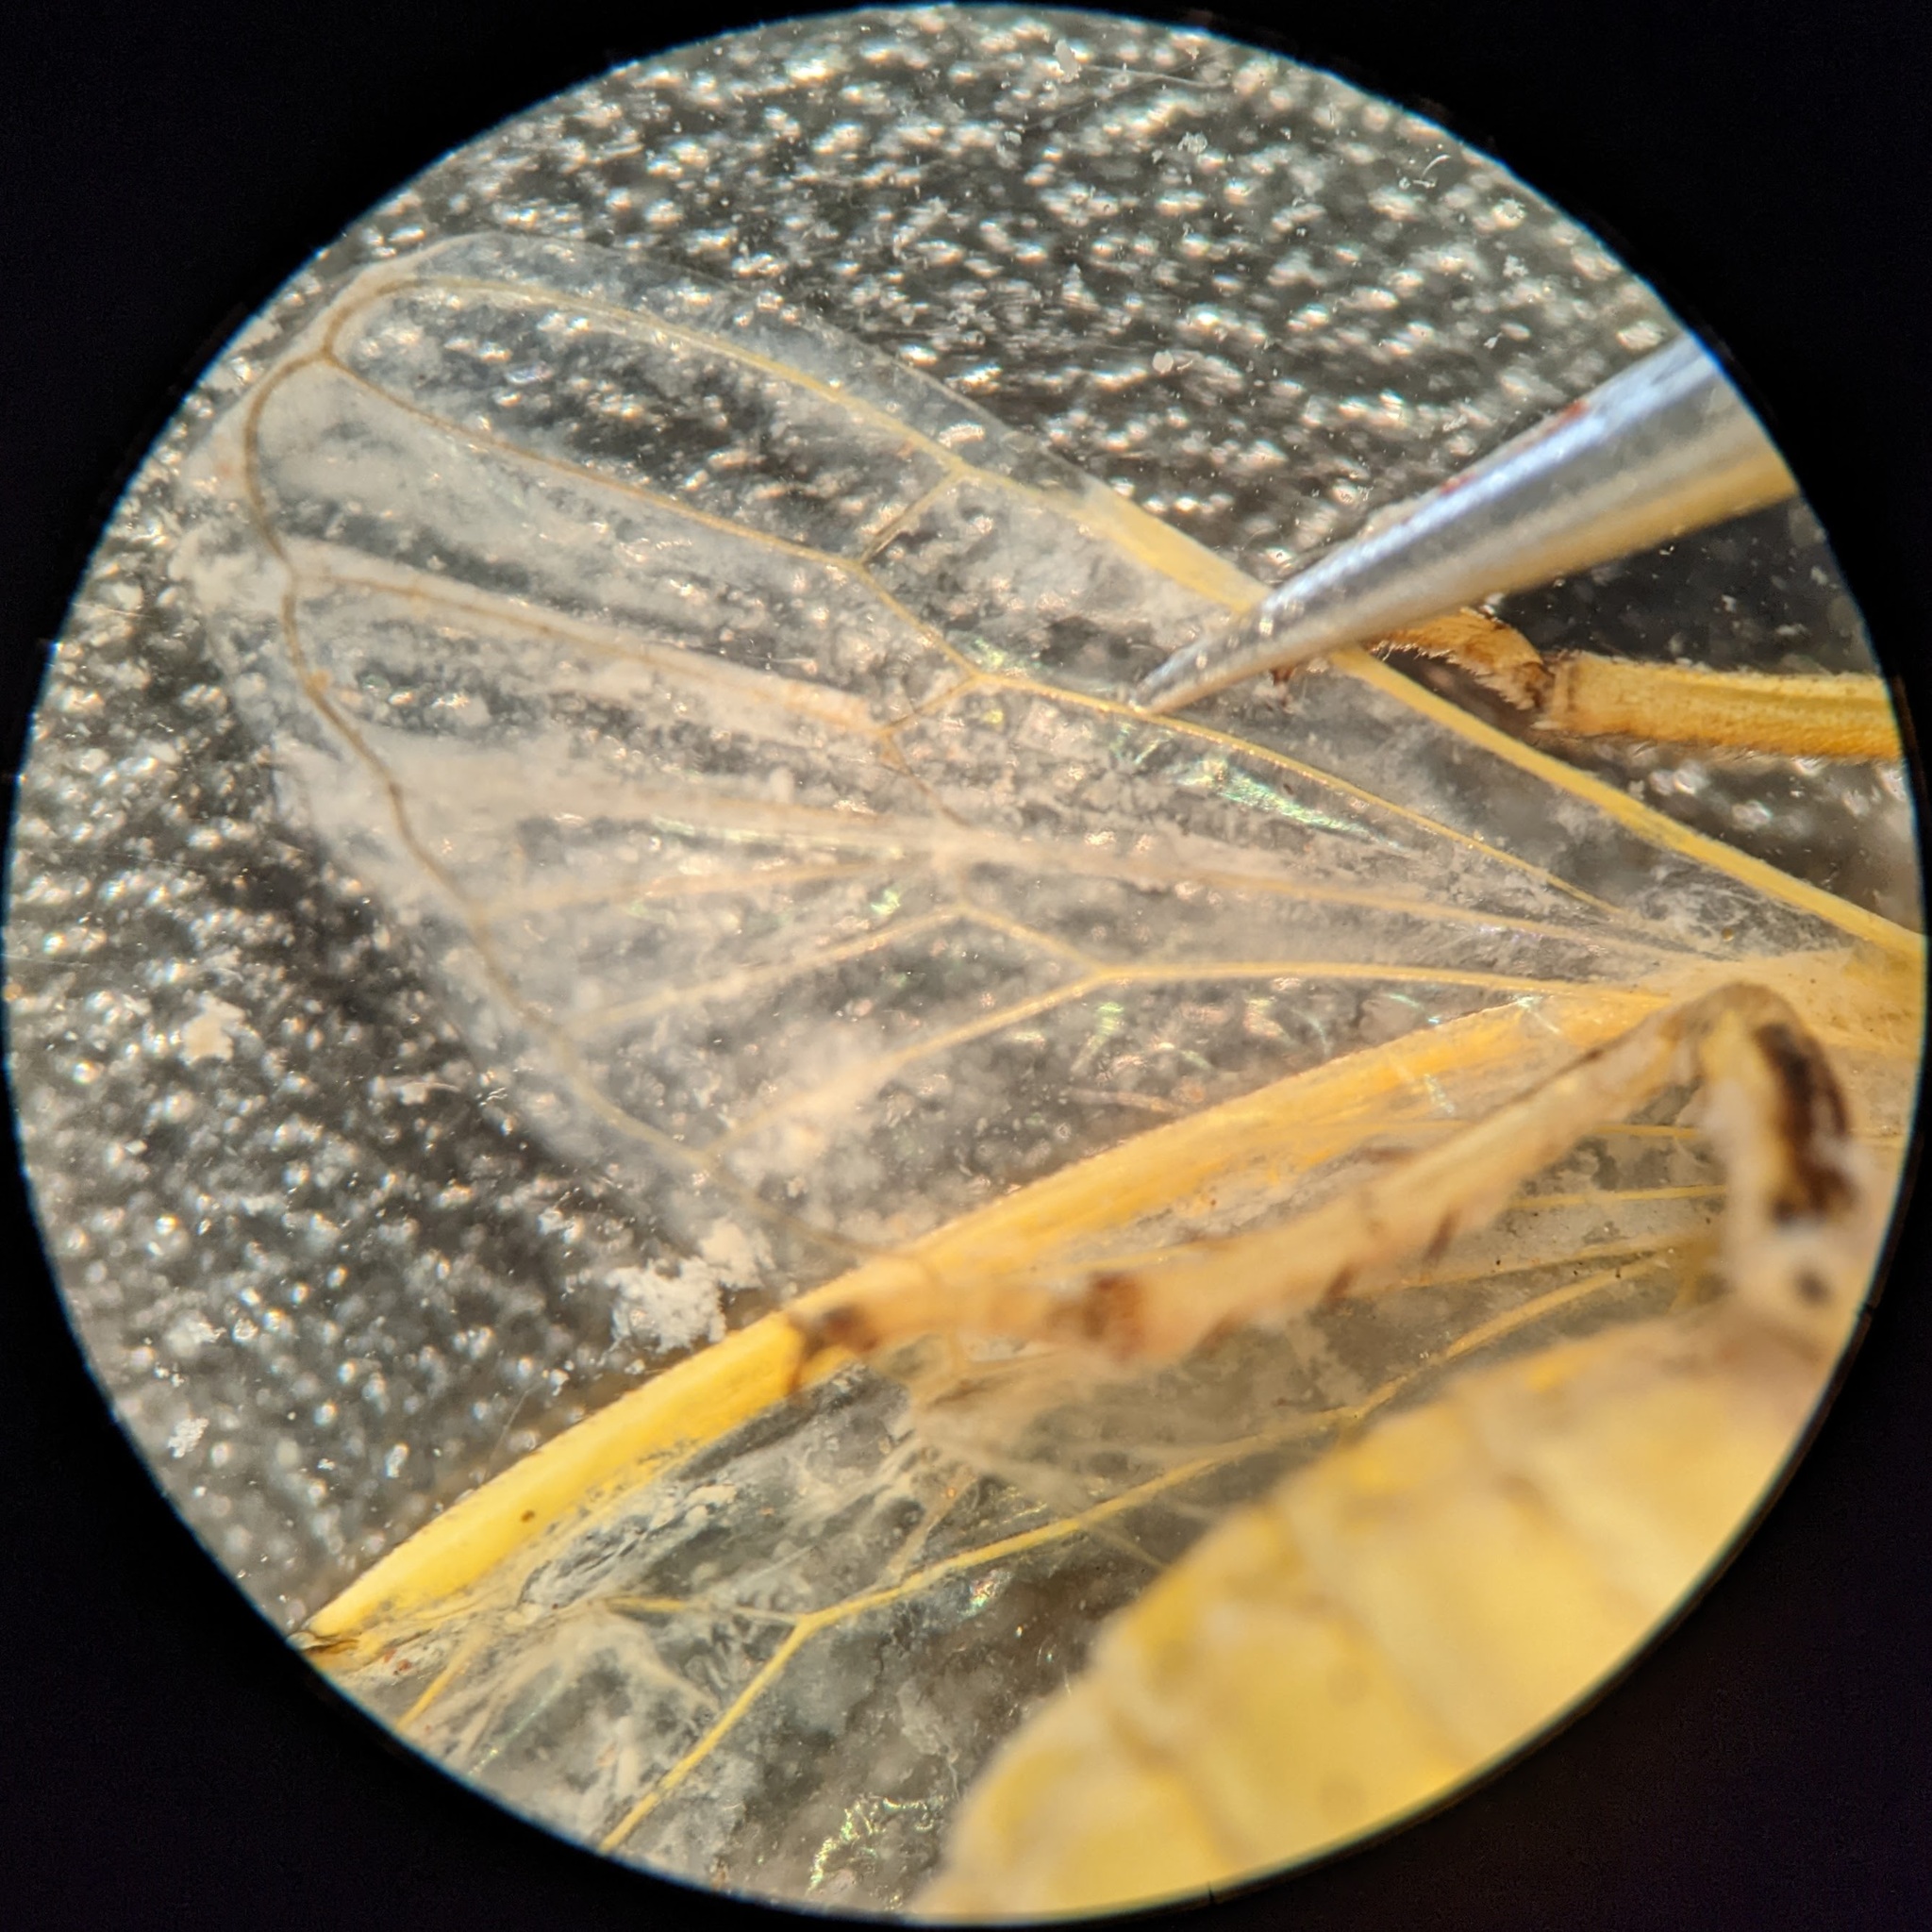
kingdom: Animalia
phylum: Arthropoda
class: Insecta
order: Hemiptera
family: Cicadidae
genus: Cicadettana
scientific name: Cicadettana calliope
